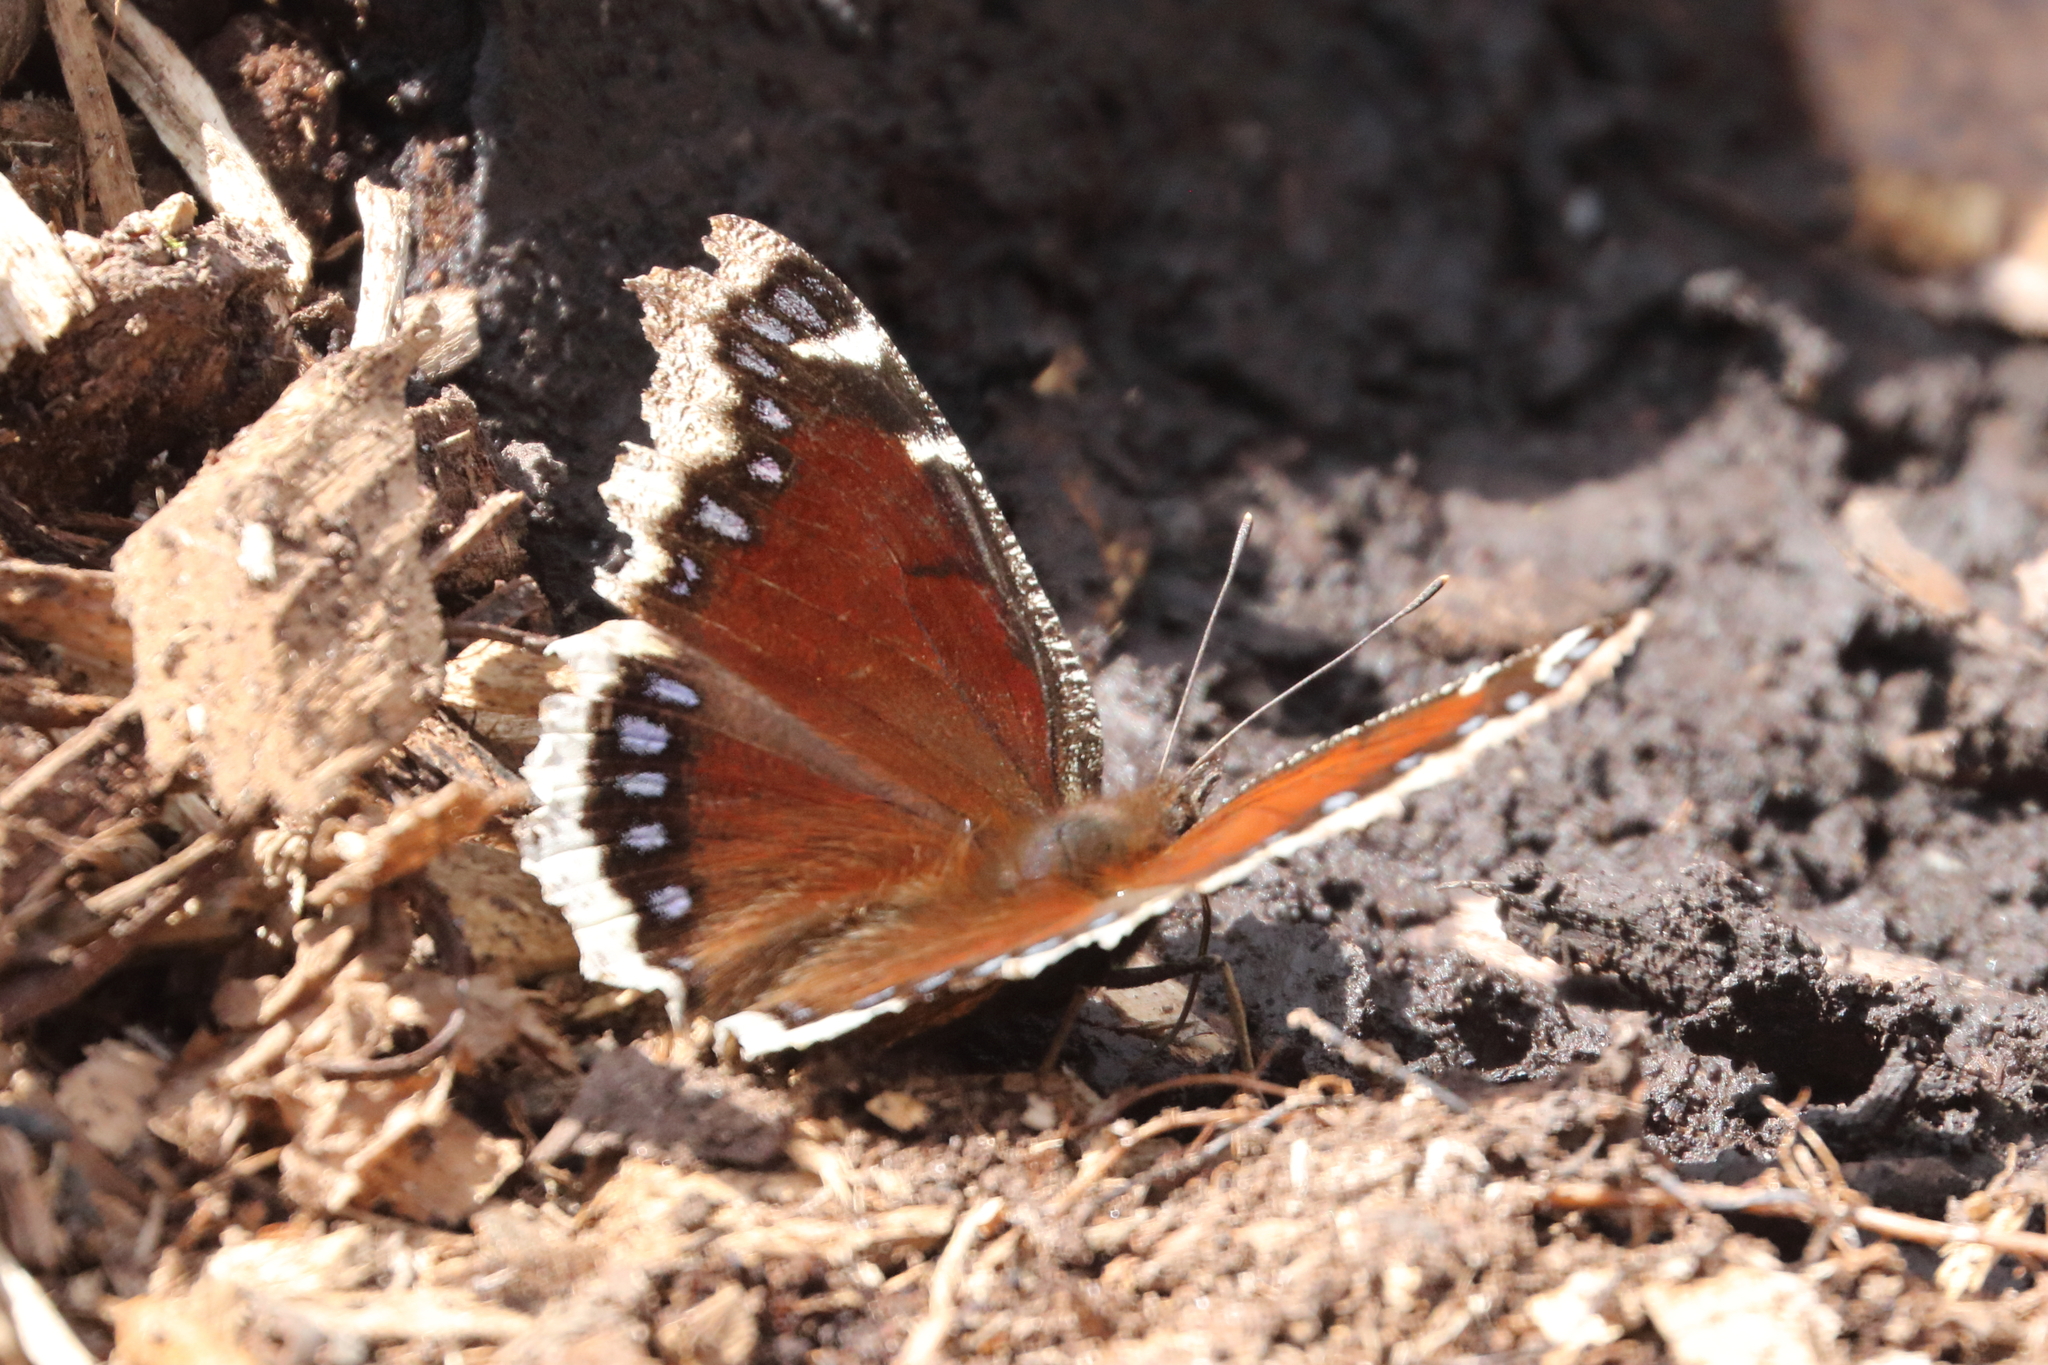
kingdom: Animalia
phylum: Arthropoda
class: Insecta
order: Lepidoptera
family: Nymphalidae
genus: Nymphalis
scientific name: Nymphalis antiopa
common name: Camberwell beauty
